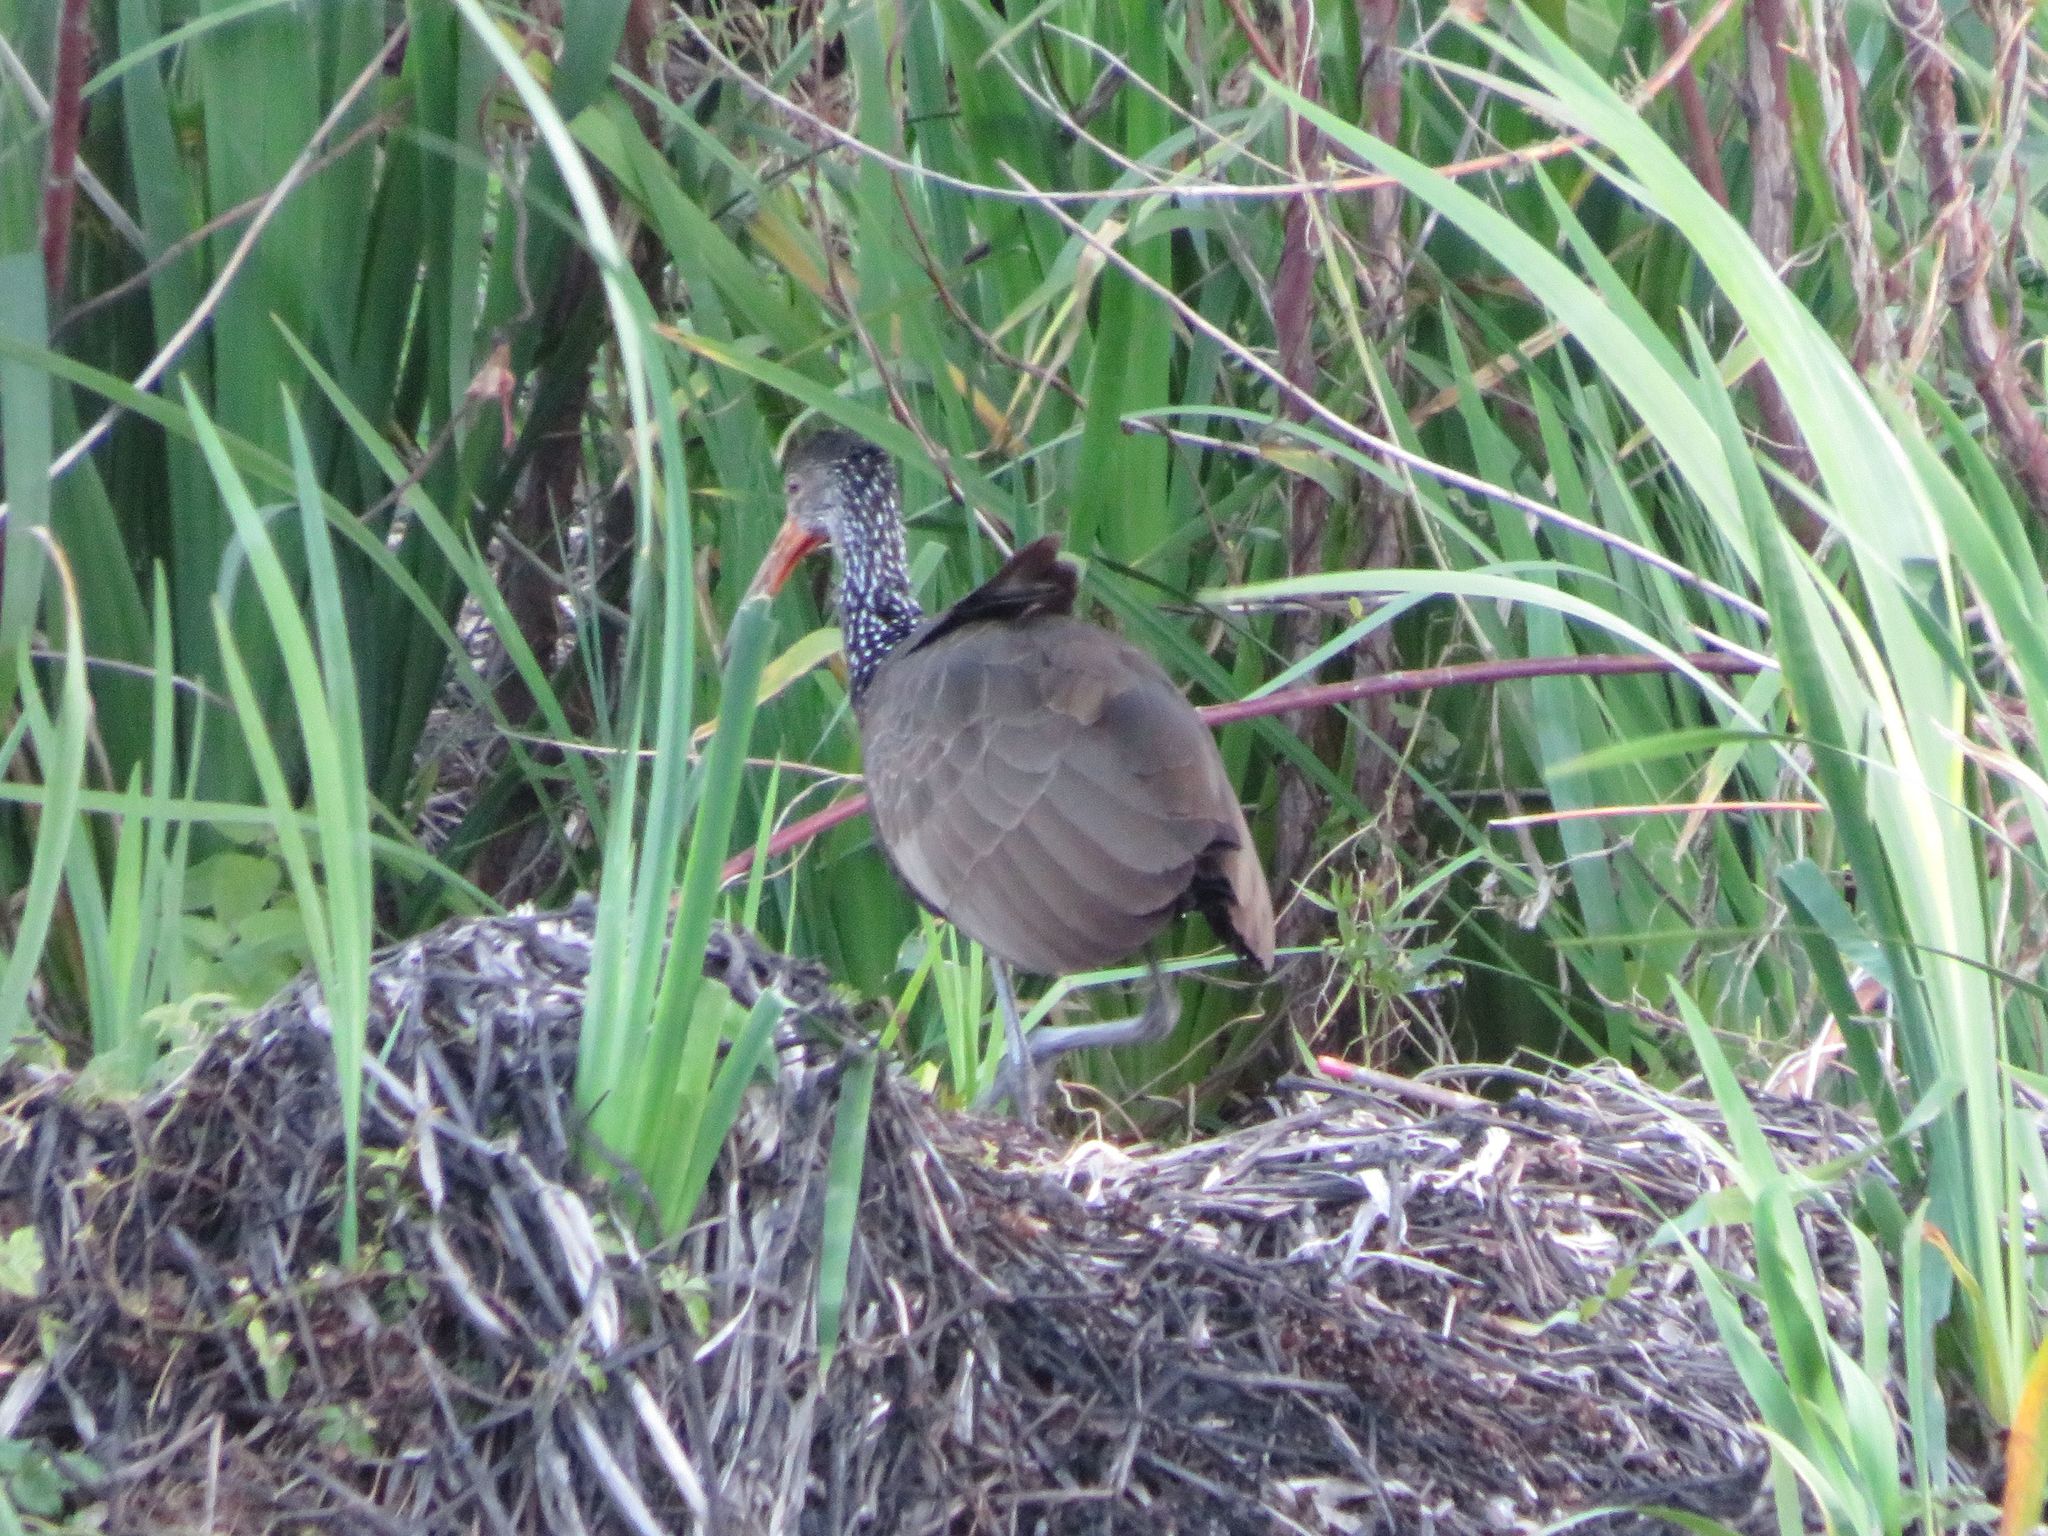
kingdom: Animalia
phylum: Chordata
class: Aves
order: Gruiformes
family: Aramidae
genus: Aramus
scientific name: Aramus guarauna
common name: Limpkin
